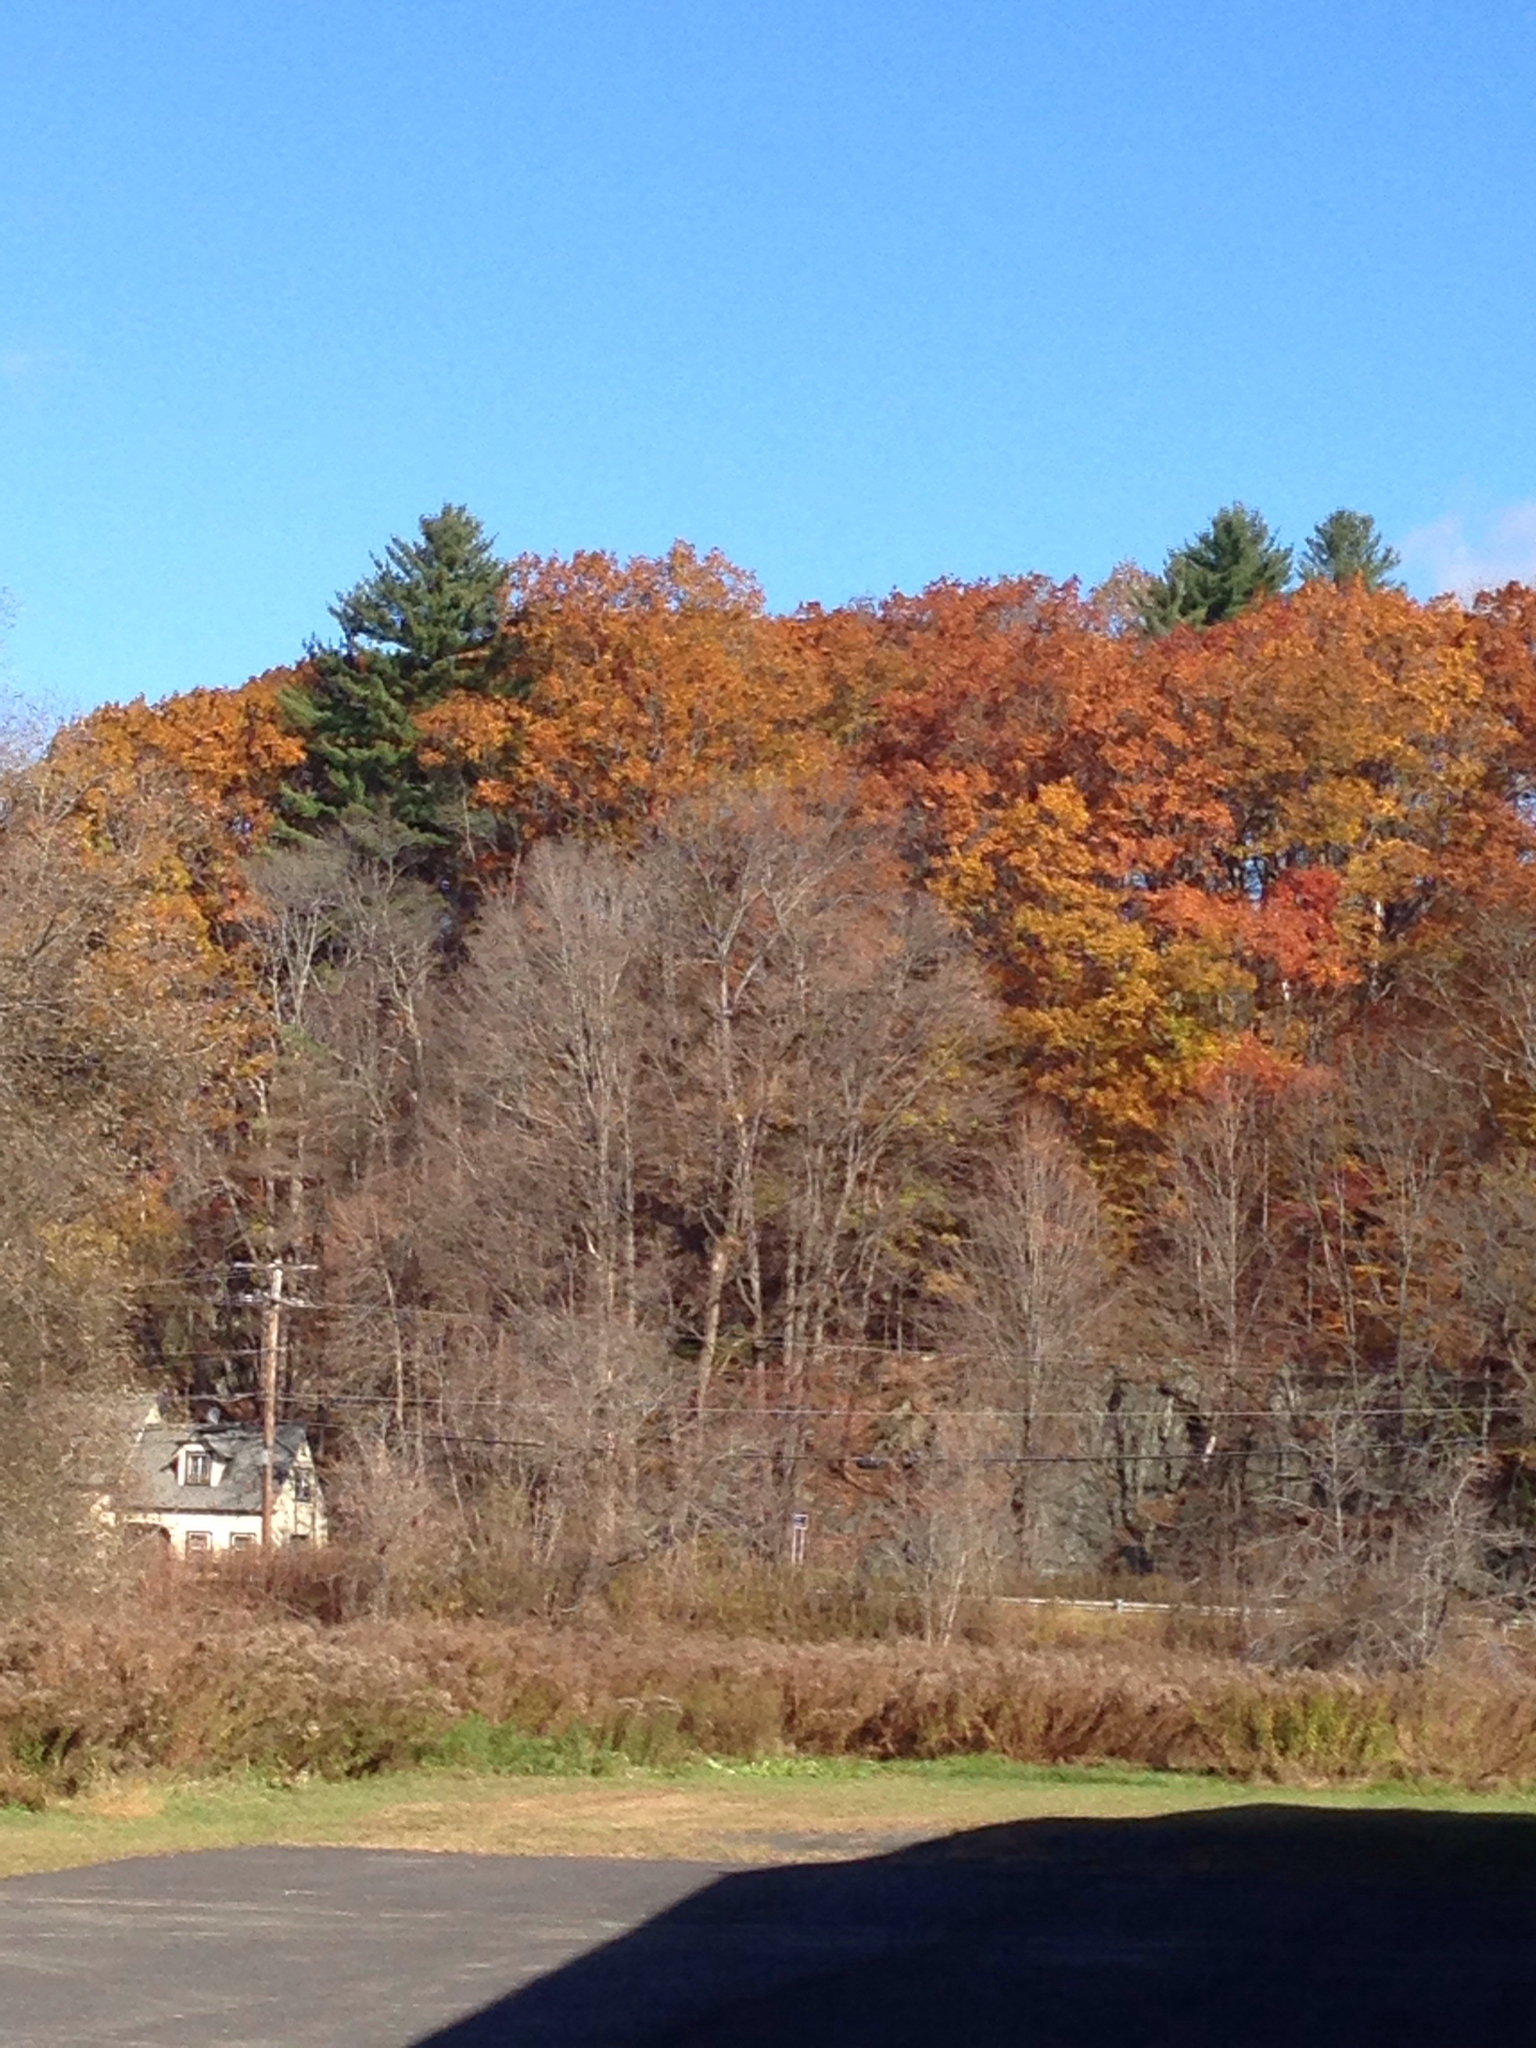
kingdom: Plantae
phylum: Tracheophyta
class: Pinopsida
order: Pinales
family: Pinaceae
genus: Pinus
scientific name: Pinus strobus
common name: Weymouth pine
